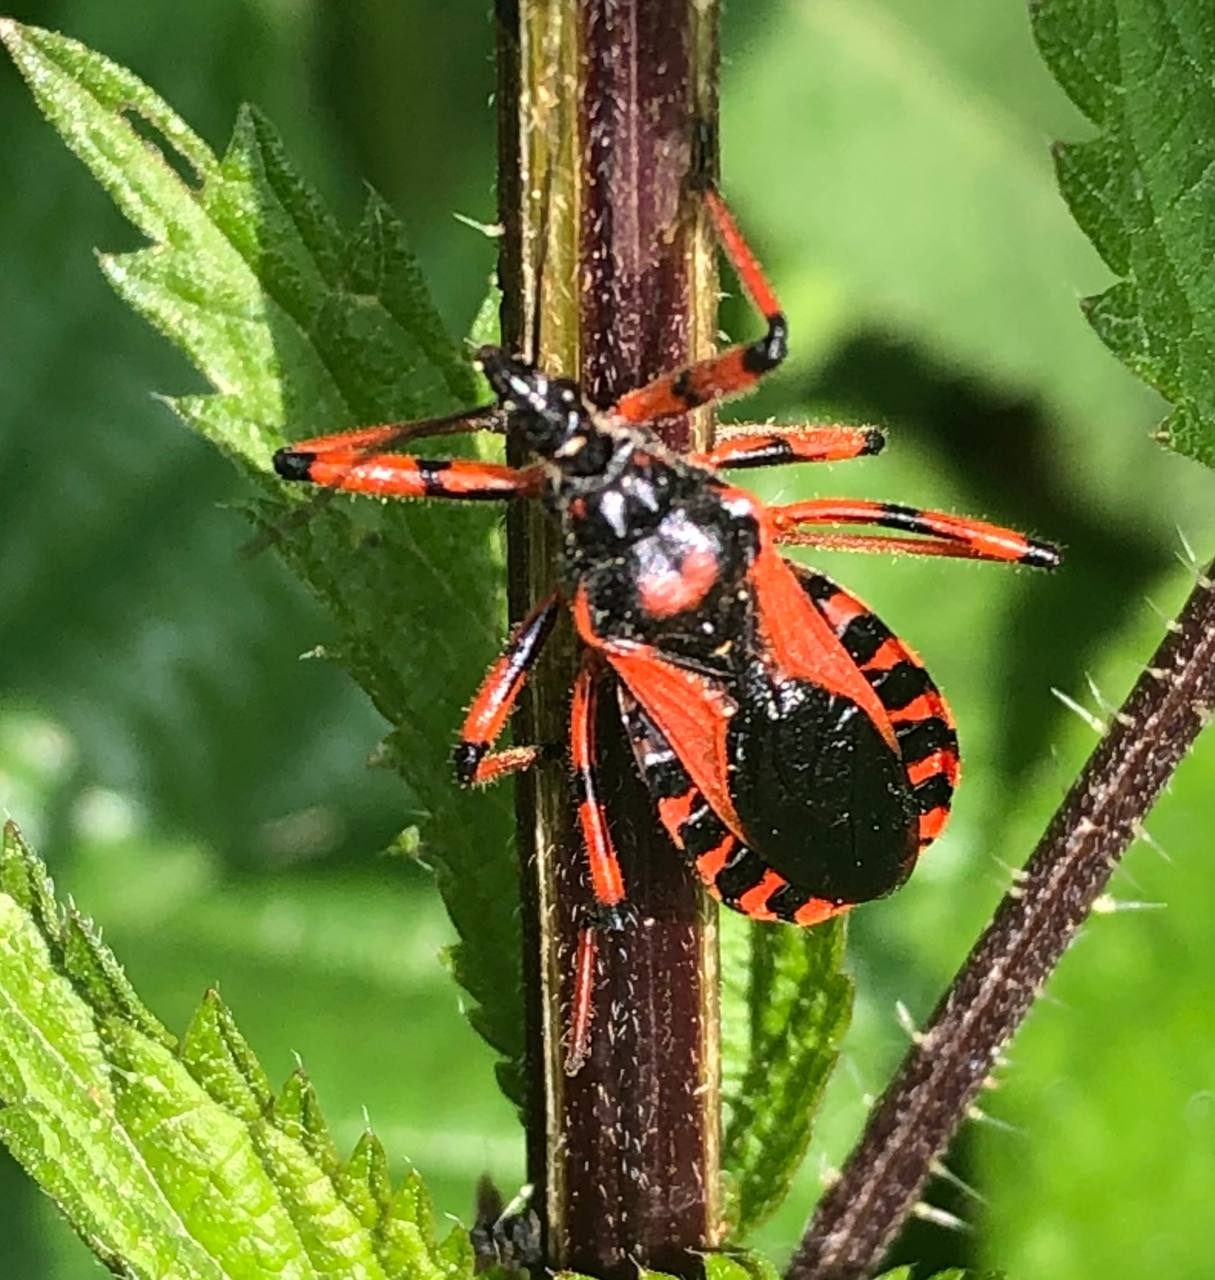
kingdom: Animalia
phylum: Arthropoda
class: Insecta
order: Hemiptera
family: Reduviidae
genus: Rhynocoris
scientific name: Rhynocoris iracundus
